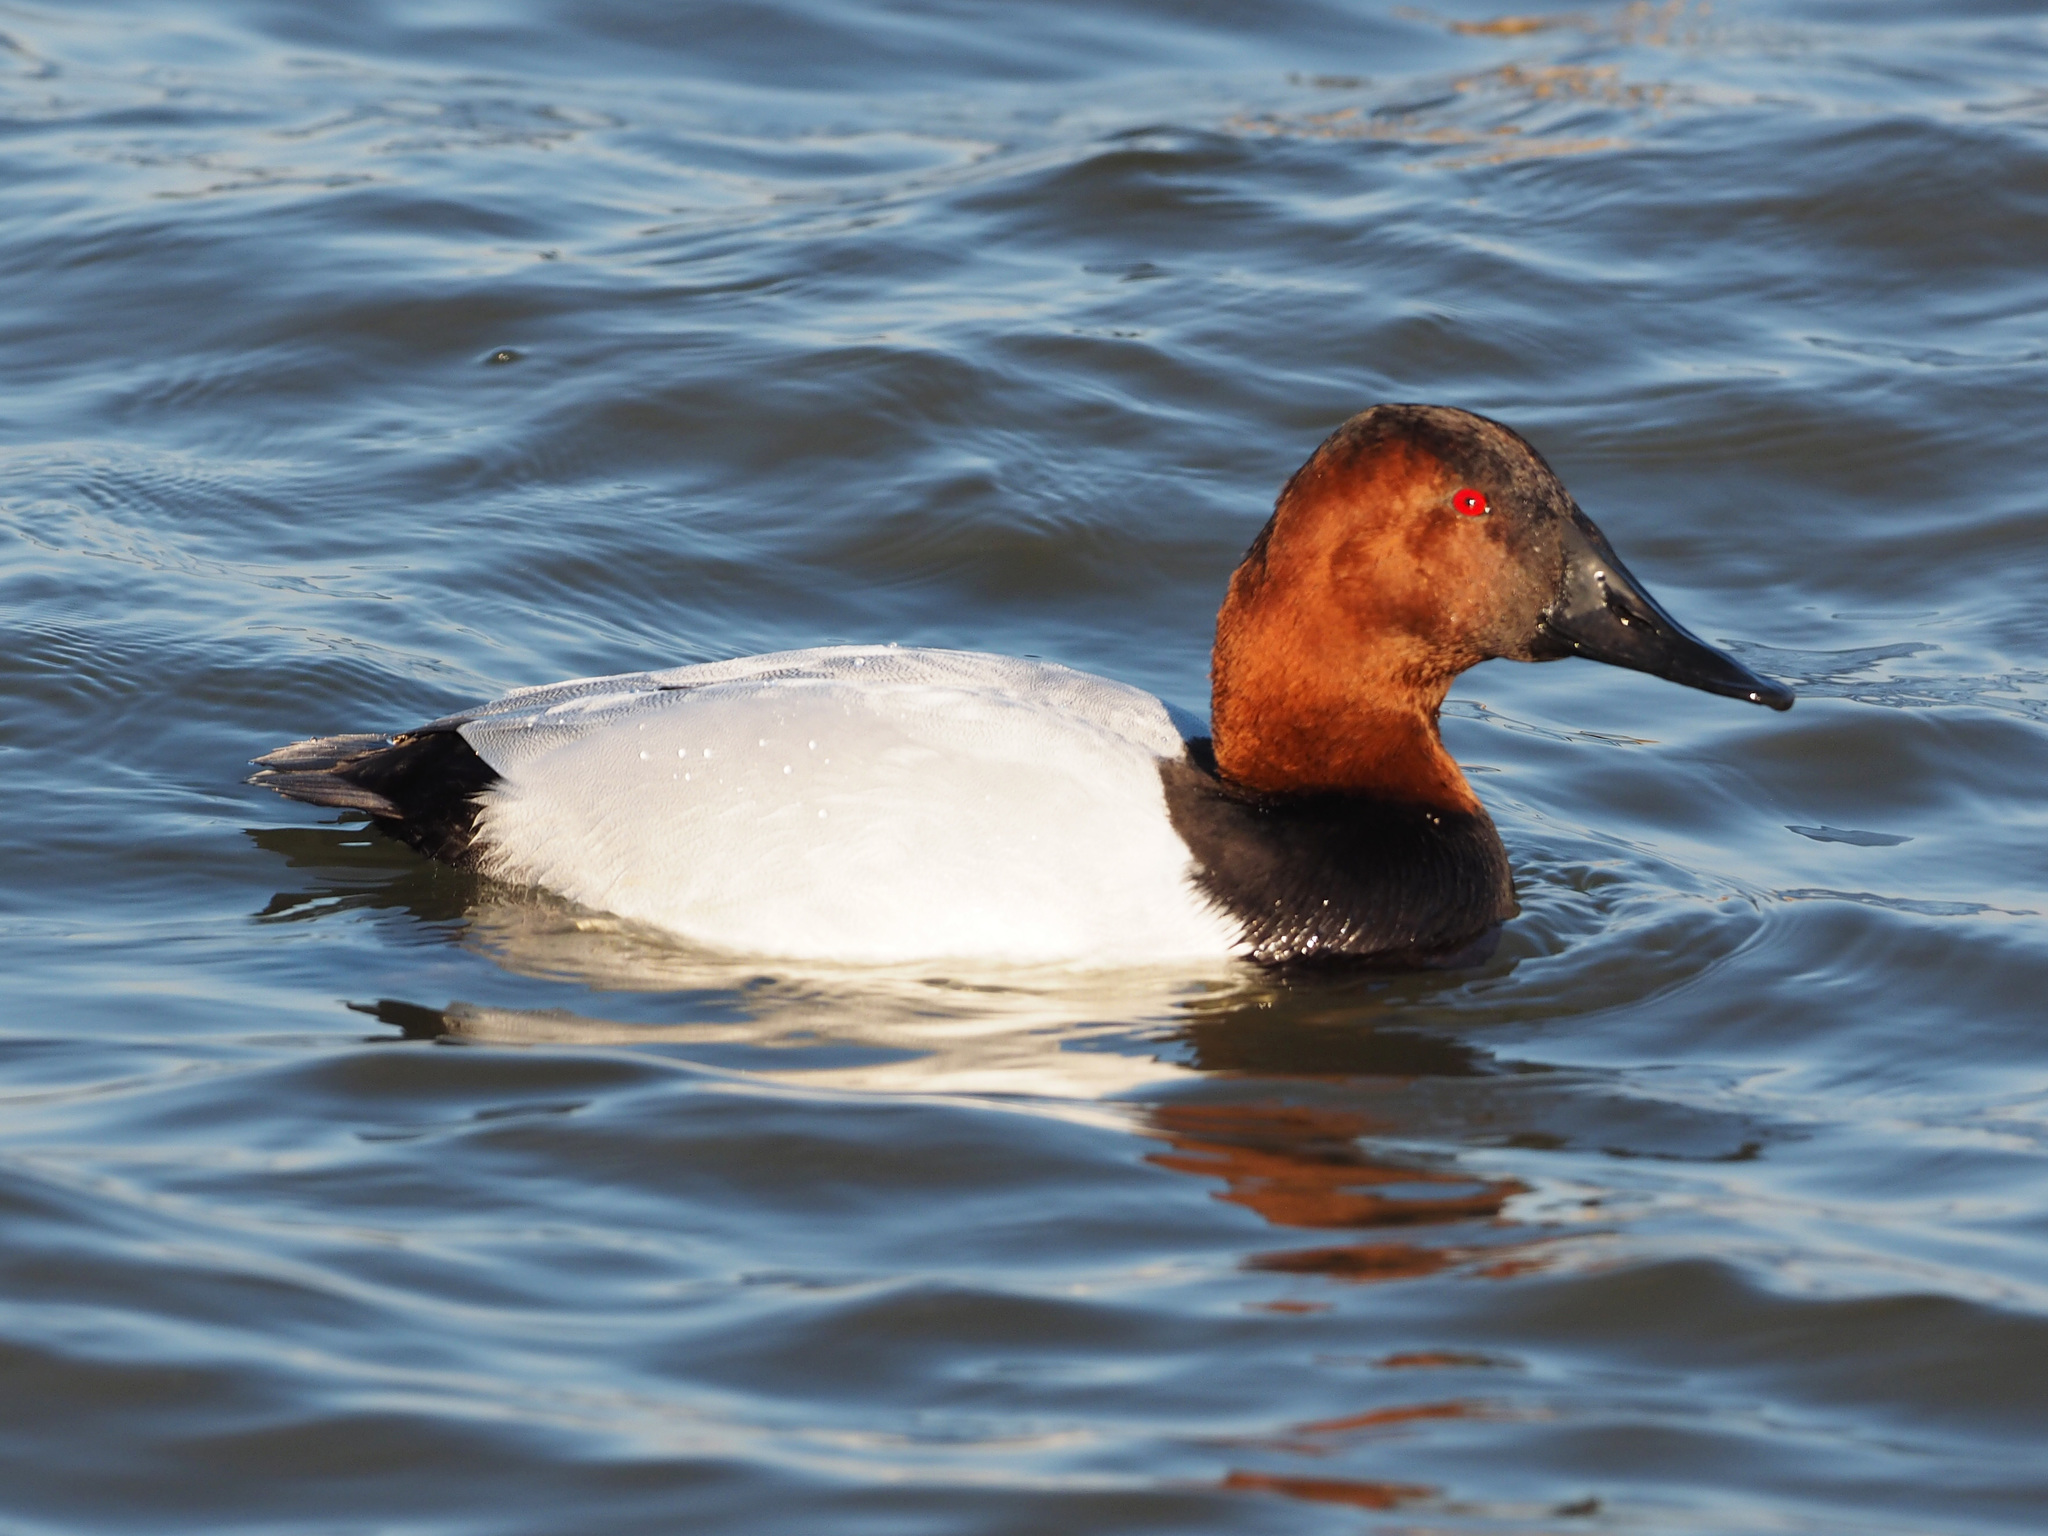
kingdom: Animalia
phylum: Chordata
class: Aves
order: Anseriformes
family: Anatidae
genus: Aythya
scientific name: Aythya valisineria
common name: Canvasback
